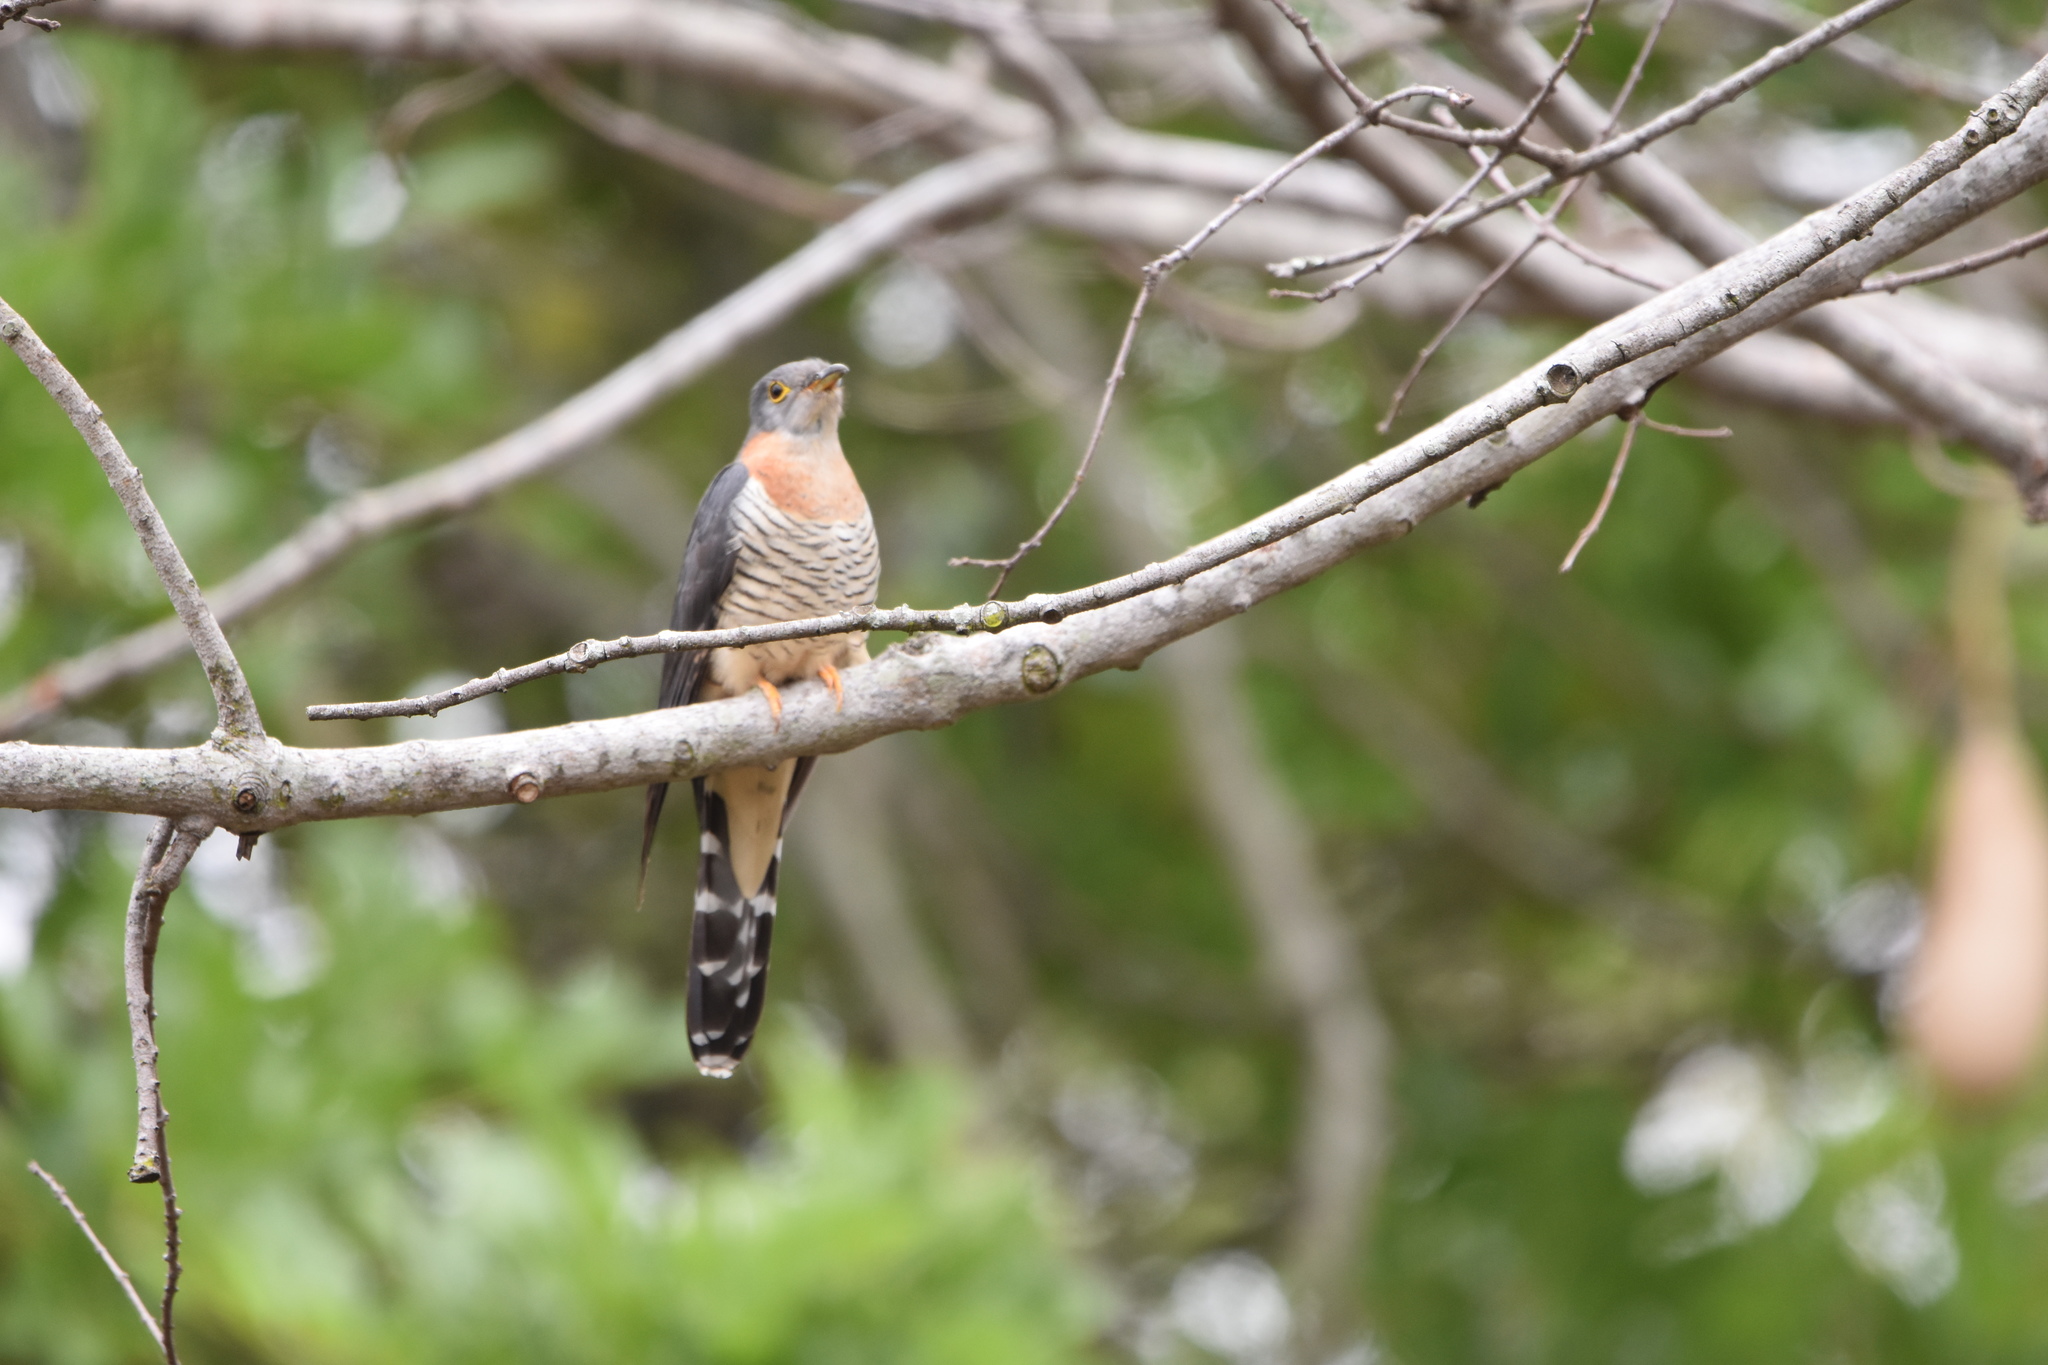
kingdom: Animalia
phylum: Chordata
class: Aves
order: Cuculiformes
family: Cuculidae
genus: Cuculus
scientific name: Cuculus solitarius
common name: Red-chested cuckoo
